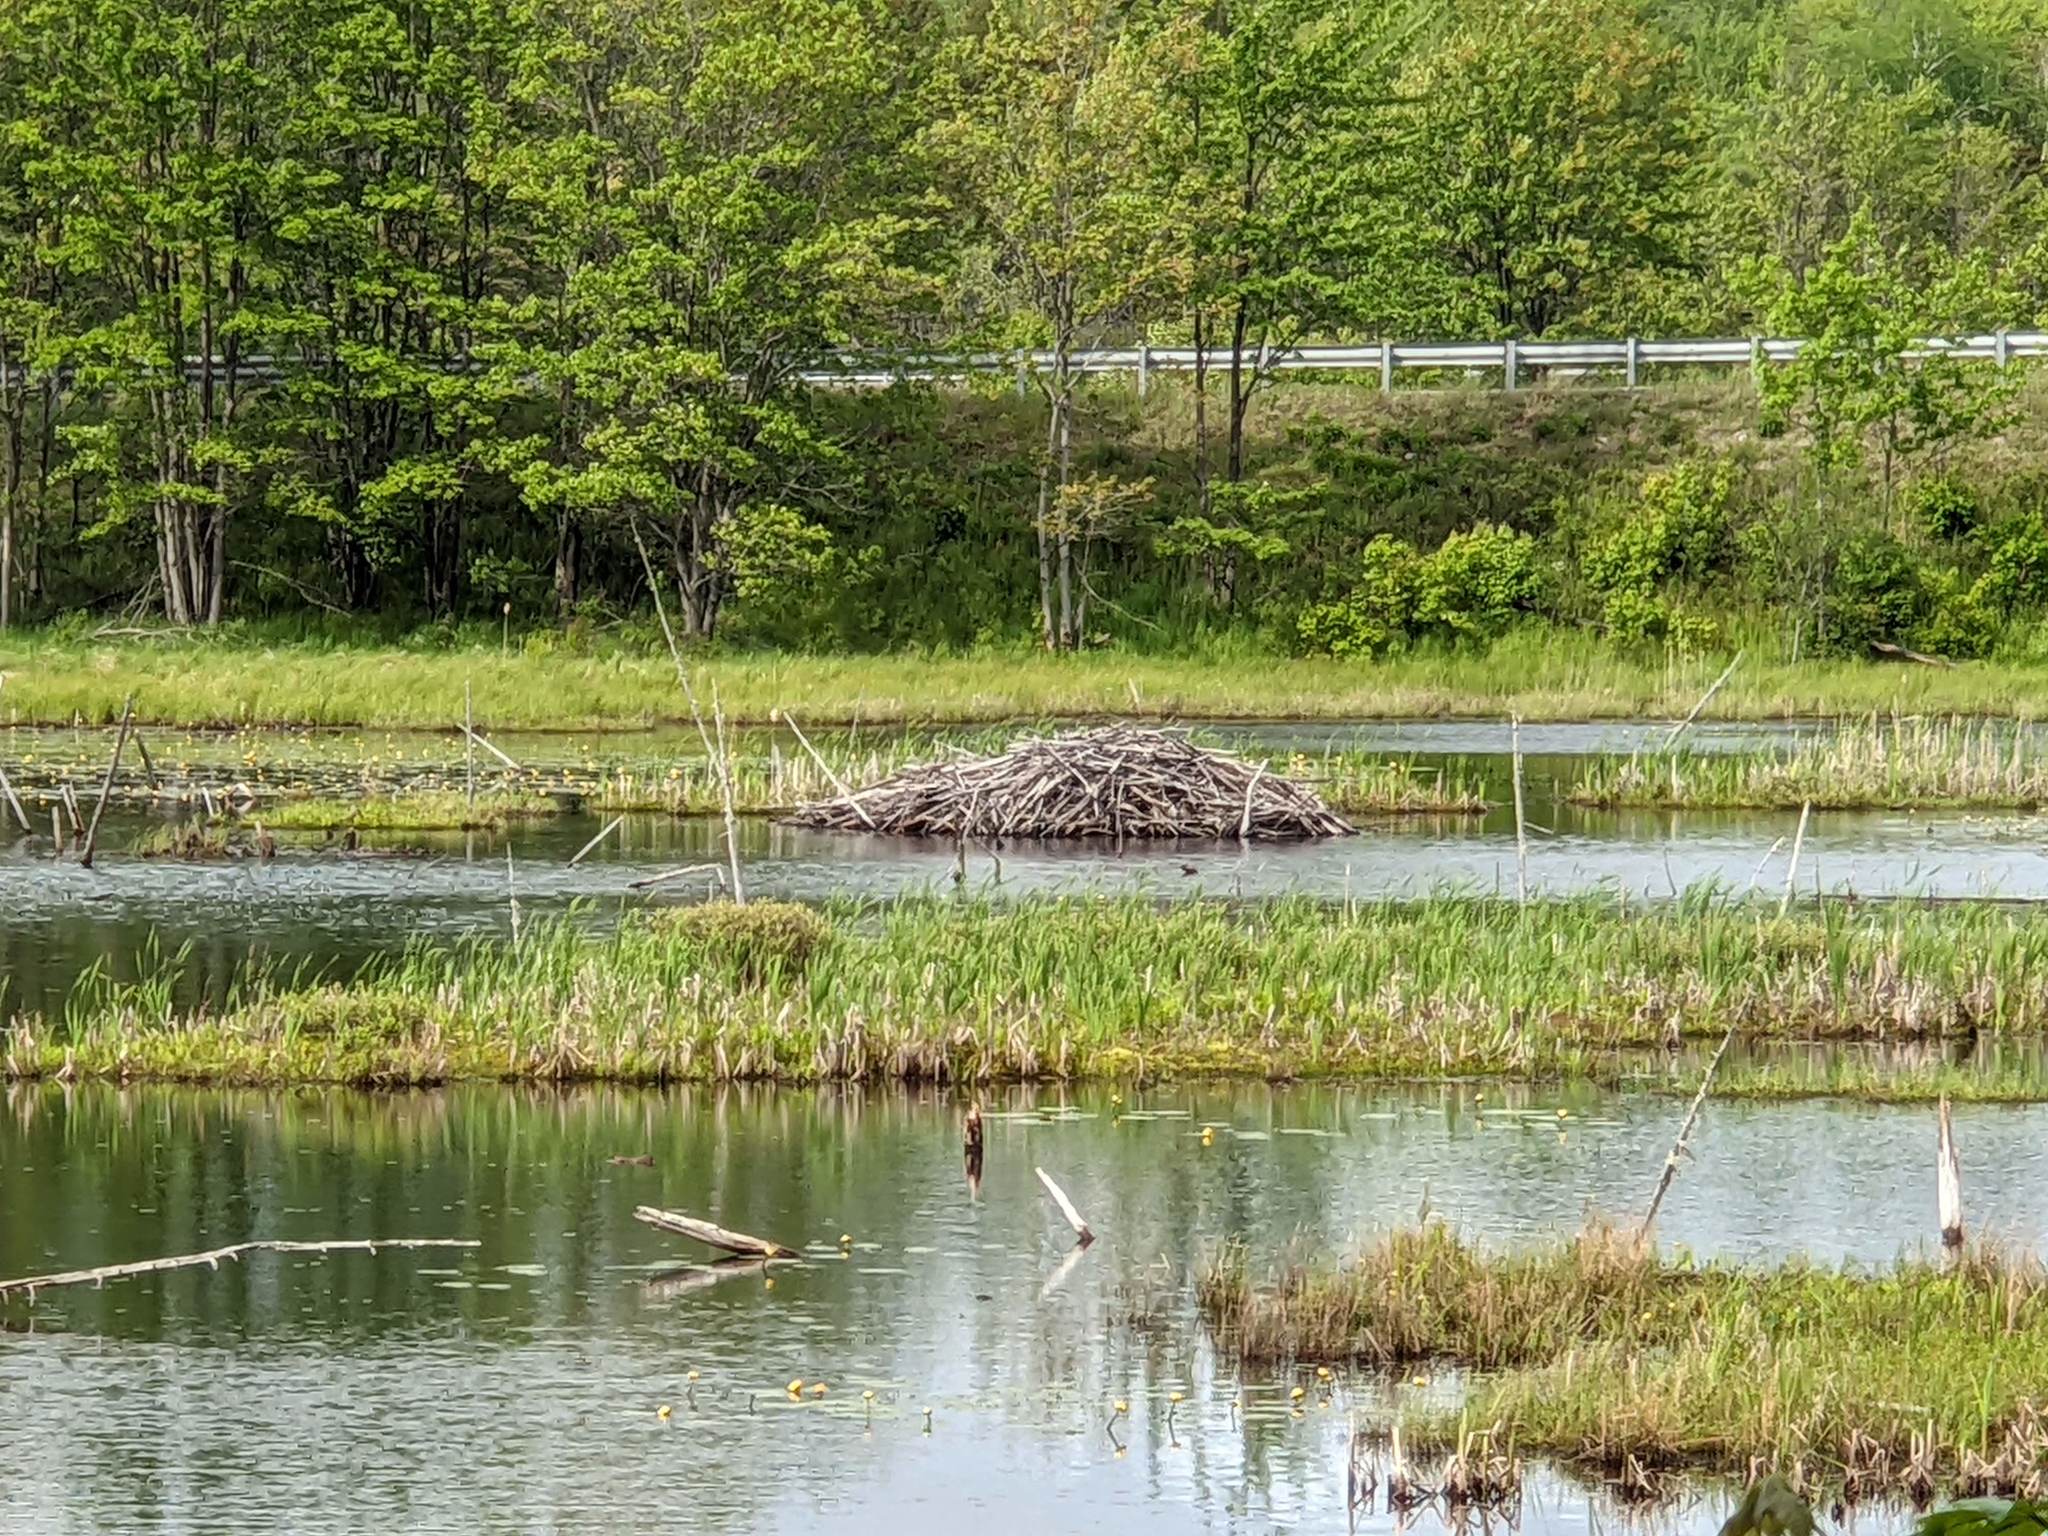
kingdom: Animalia
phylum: Chordata
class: Mammalia
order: Rodentia
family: Castoridae
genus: Castor
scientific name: Castor canadensis
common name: American beaver
